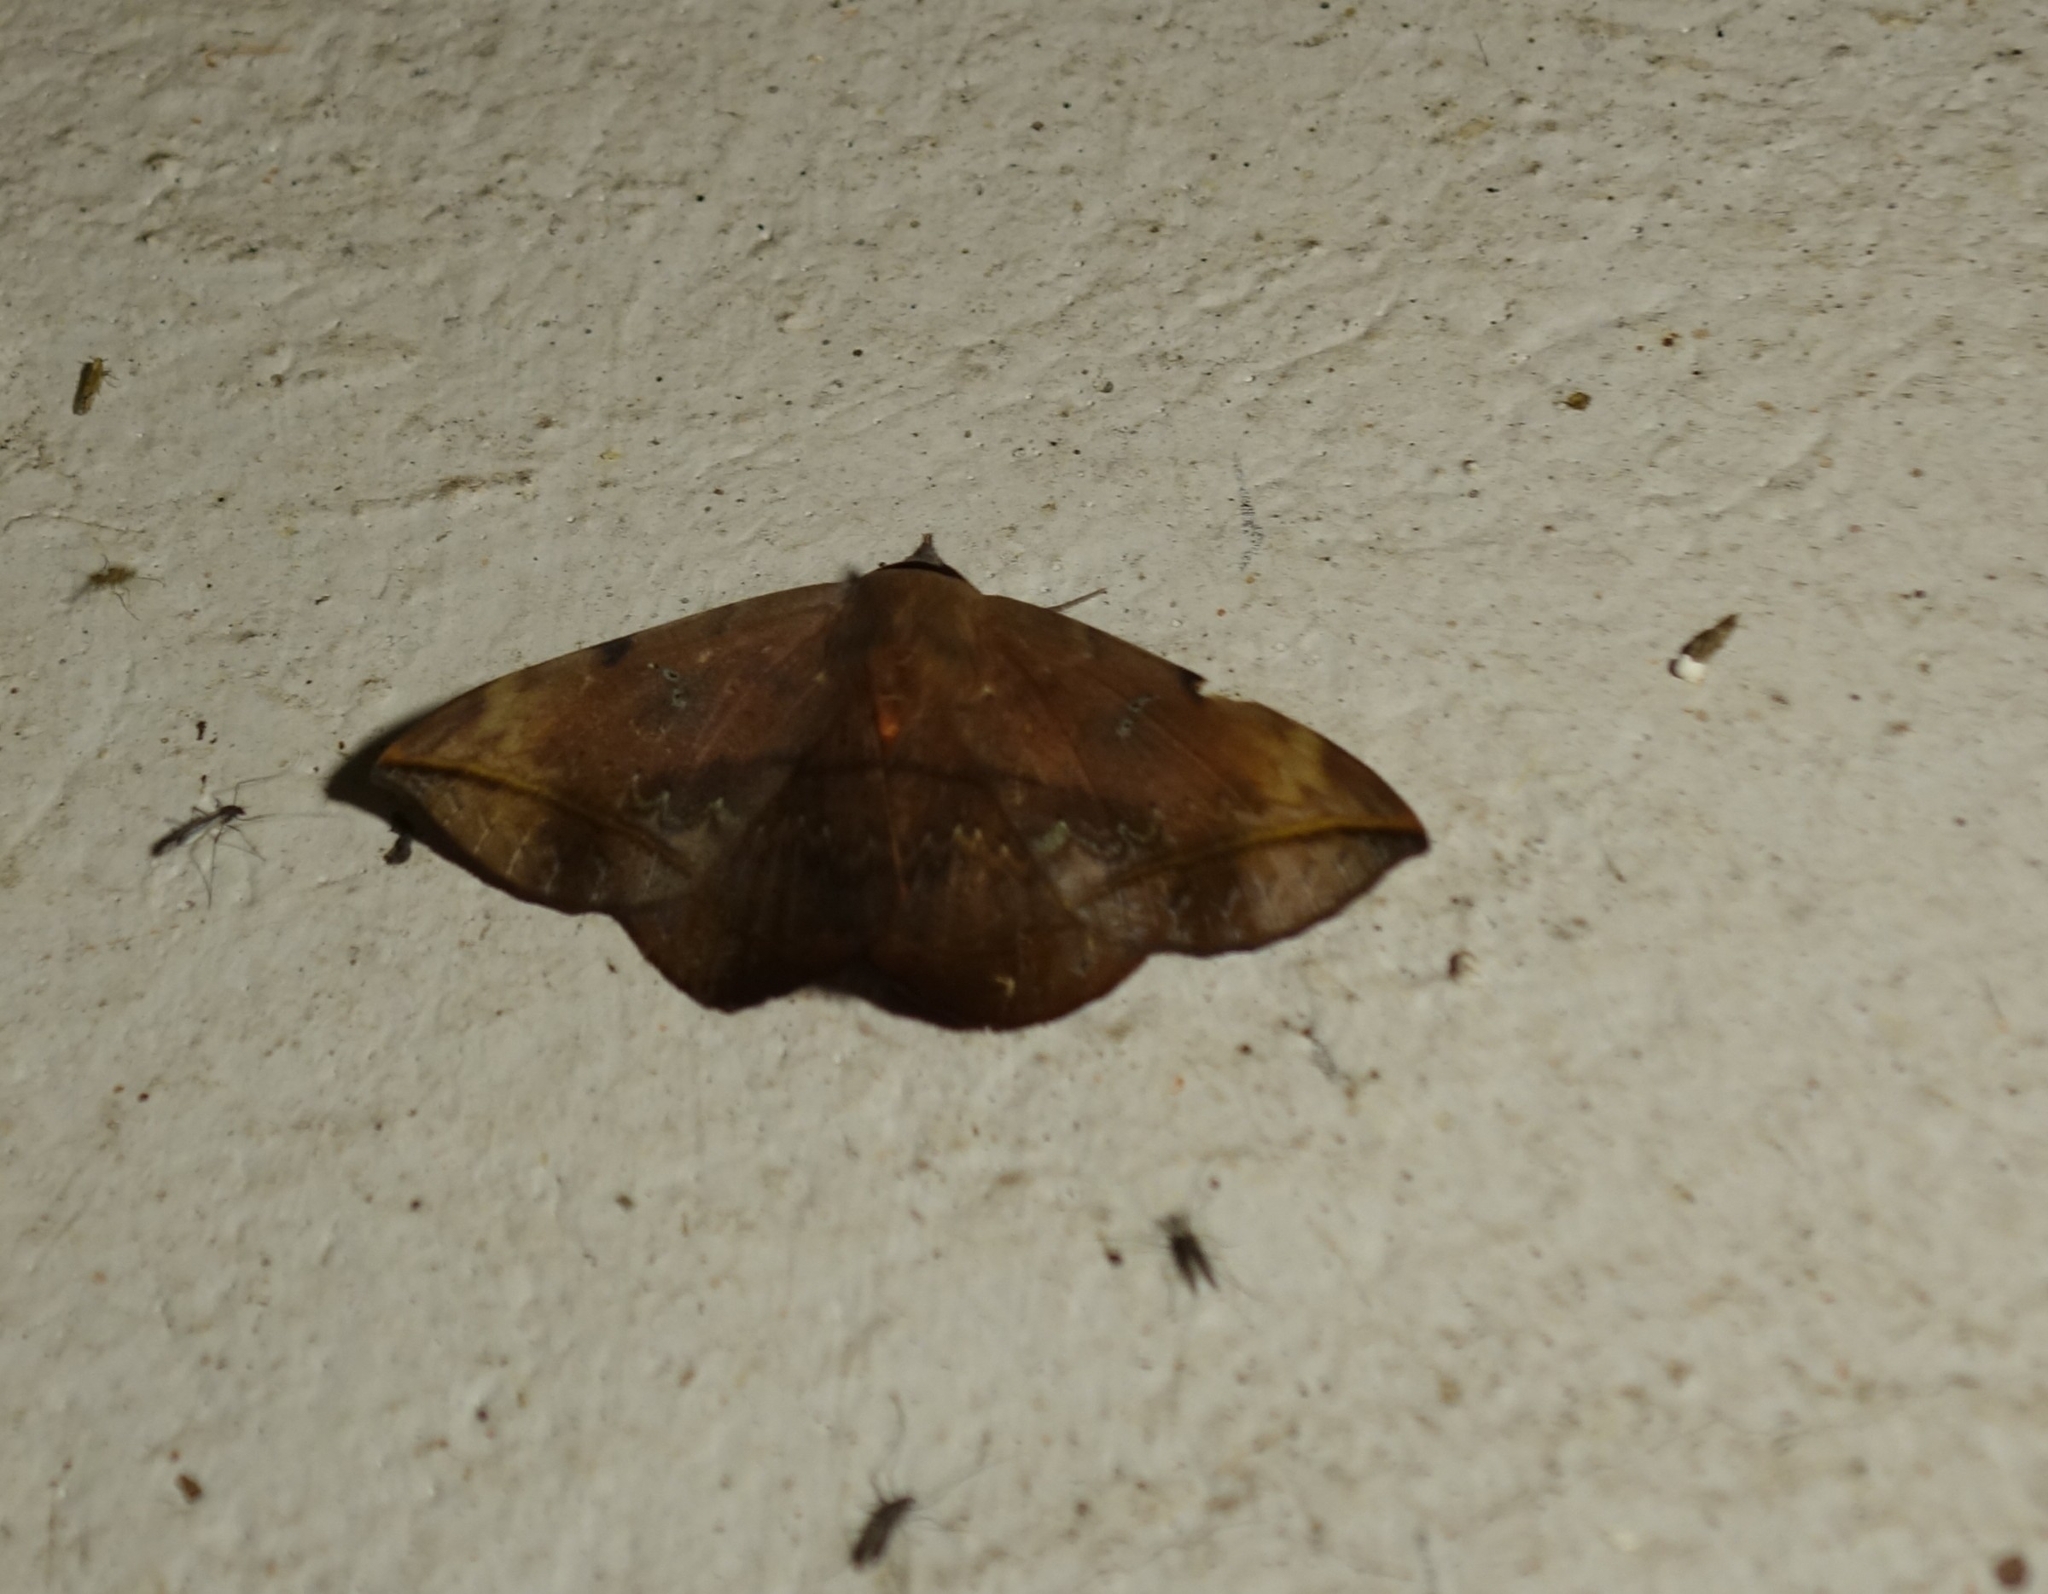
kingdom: Animalia
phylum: Arthropoda
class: Insecta
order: Lepidoptera
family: Erebidae
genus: Hypopyra
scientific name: Hypopyra capensis
